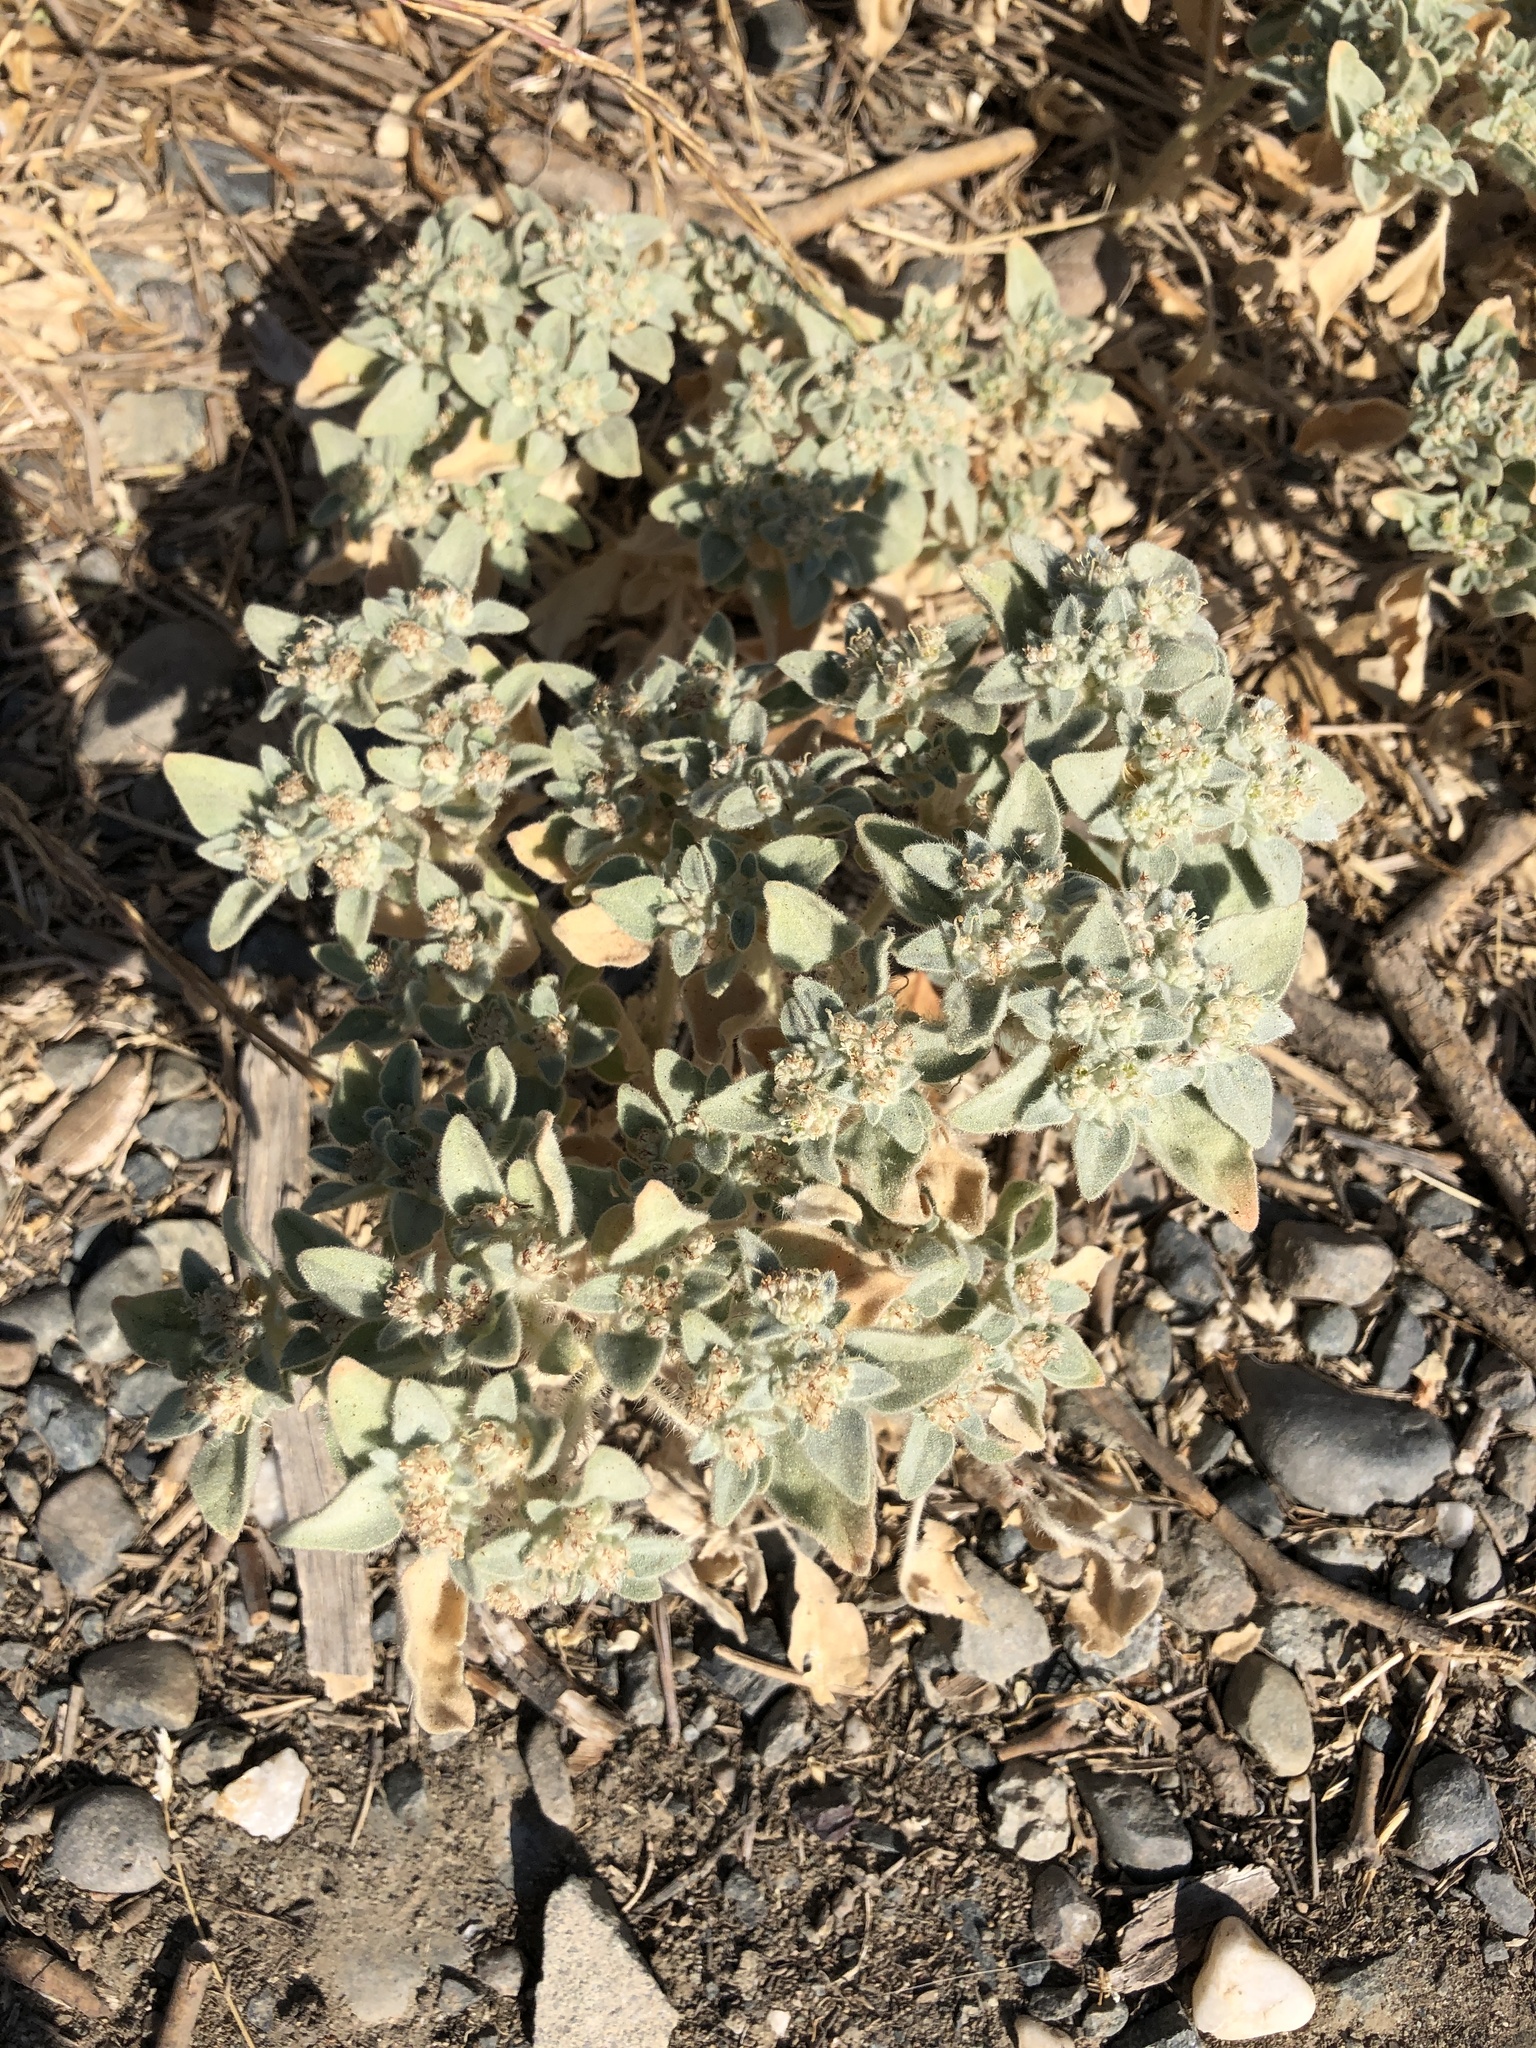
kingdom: Plantae
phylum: Tracheophyta
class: Magnoliopsida
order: Malpighiales
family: Euphorbiaceae
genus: Croton
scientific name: Croton setiger
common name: Dove weed
